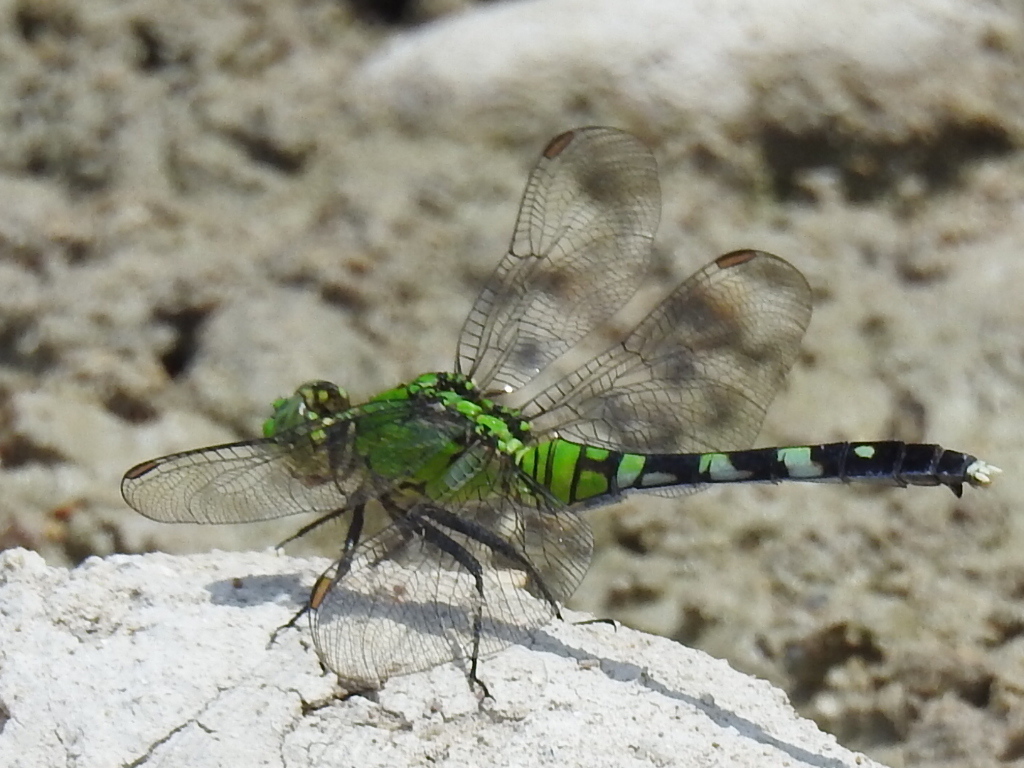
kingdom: Animalia
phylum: Arthropoda
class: Insecta
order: Odonata
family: Libellulidae
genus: Erythemis
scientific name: Erythemis simplicicollis
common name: Eastern pondhawk
